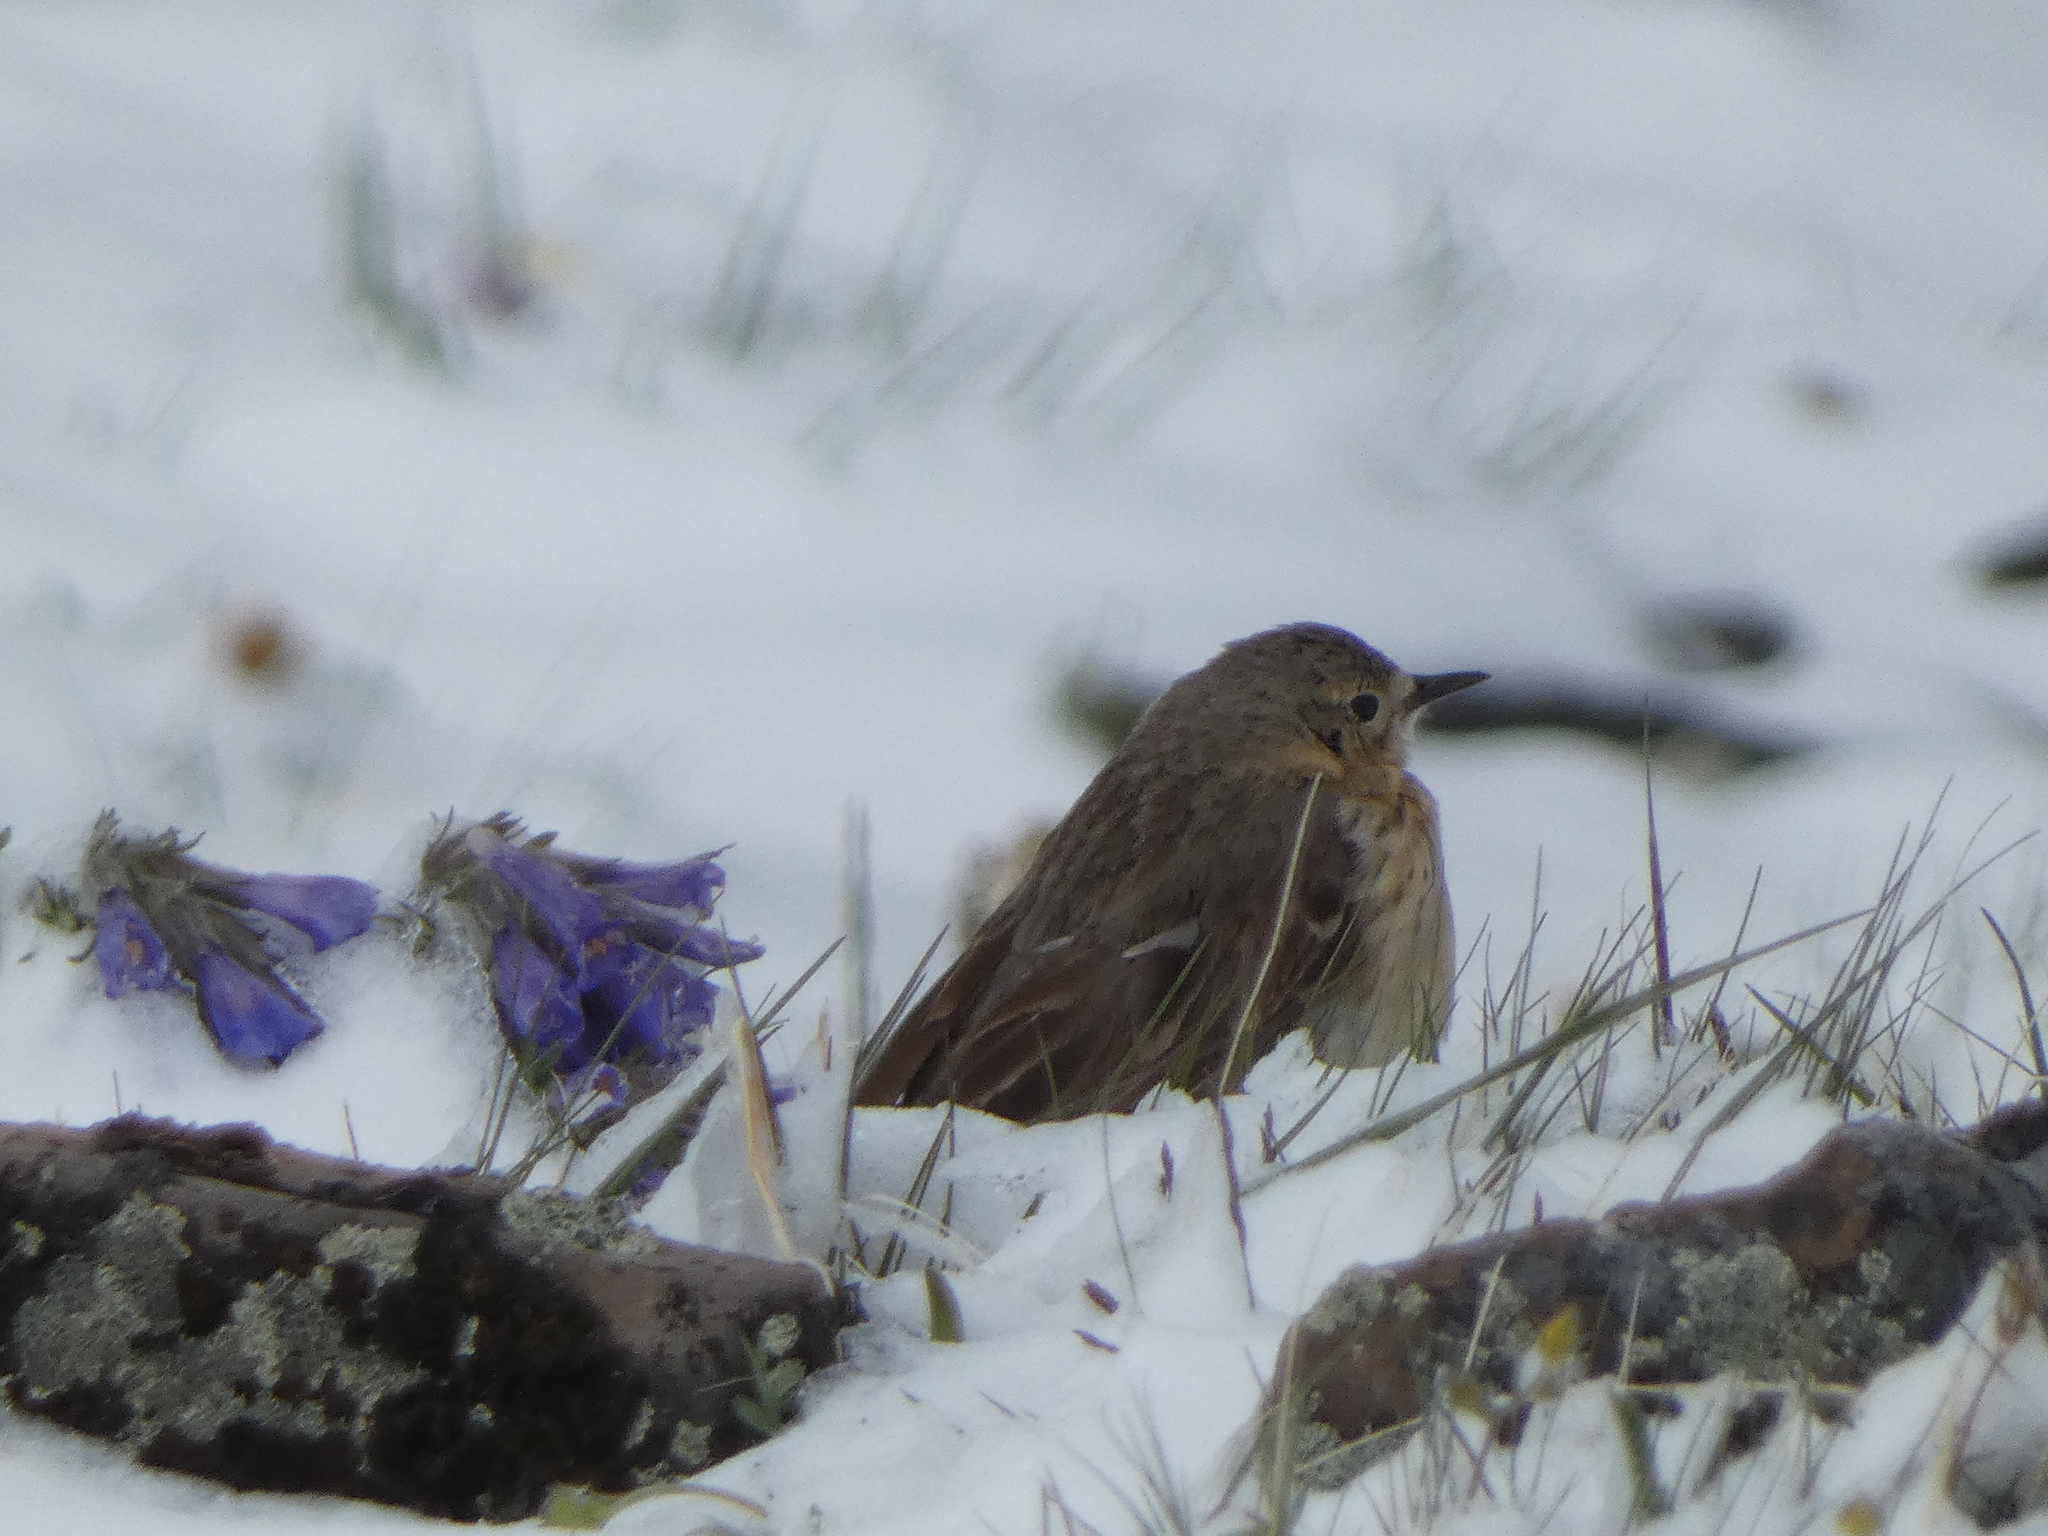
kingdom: Animalia
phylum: Chordata
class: Aves
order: Passeriformes
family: Motacillidae
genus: Anthus
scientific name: Anthus rubescens
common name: Buff-bellied pipit
